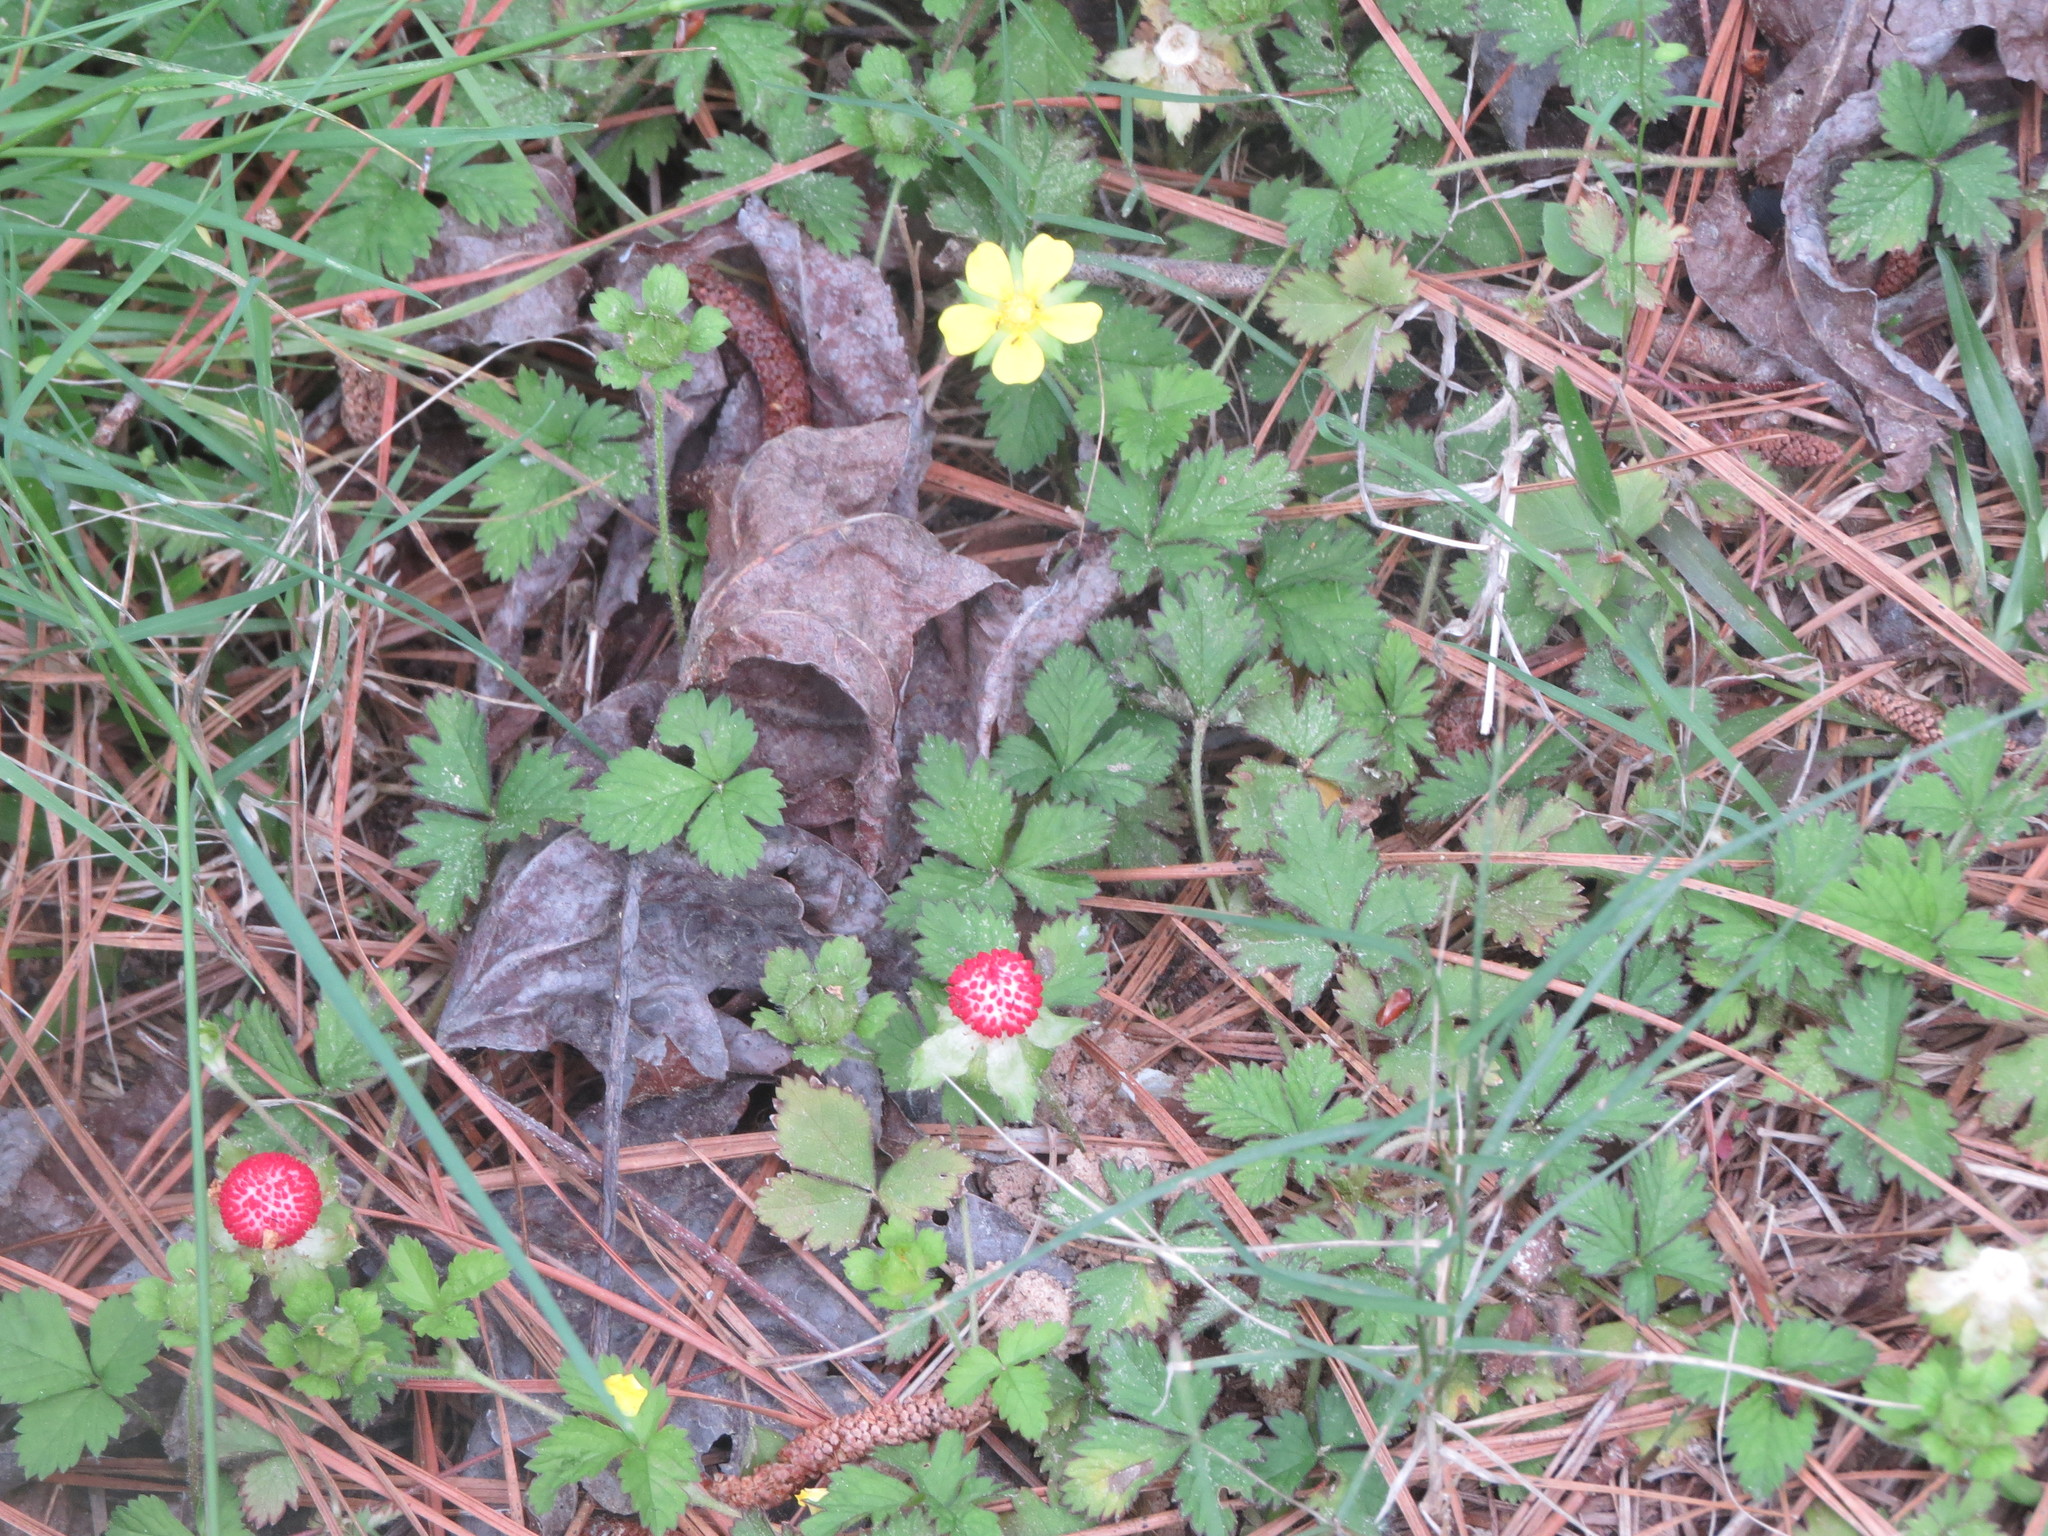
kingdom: Plantae
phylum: Tracheophyta
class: Magnoliopsida
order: Rosales
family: Rosaceae
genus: Potentilla
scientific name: Potentilla indica
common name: Yellow-flowered strawberry
